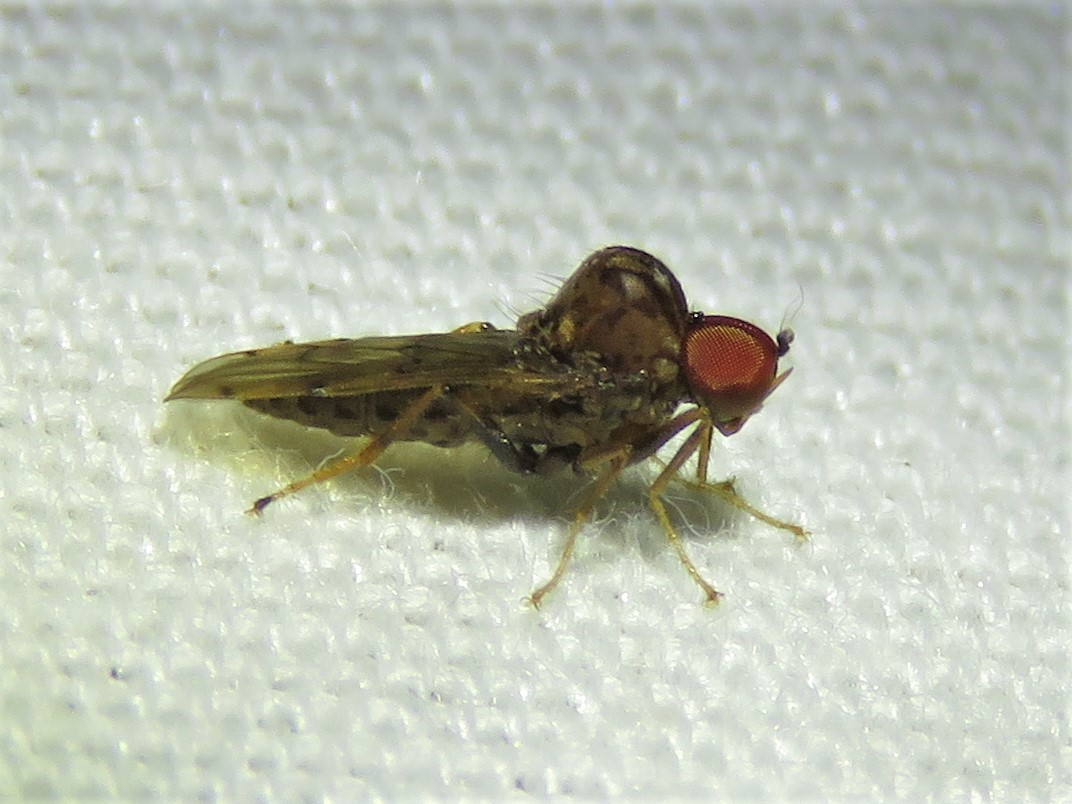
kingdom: Animalia
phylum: Arthropoda
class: Insecta
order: Diptera
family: Hybotidae
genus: Syneches
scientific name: Syneches simplex
